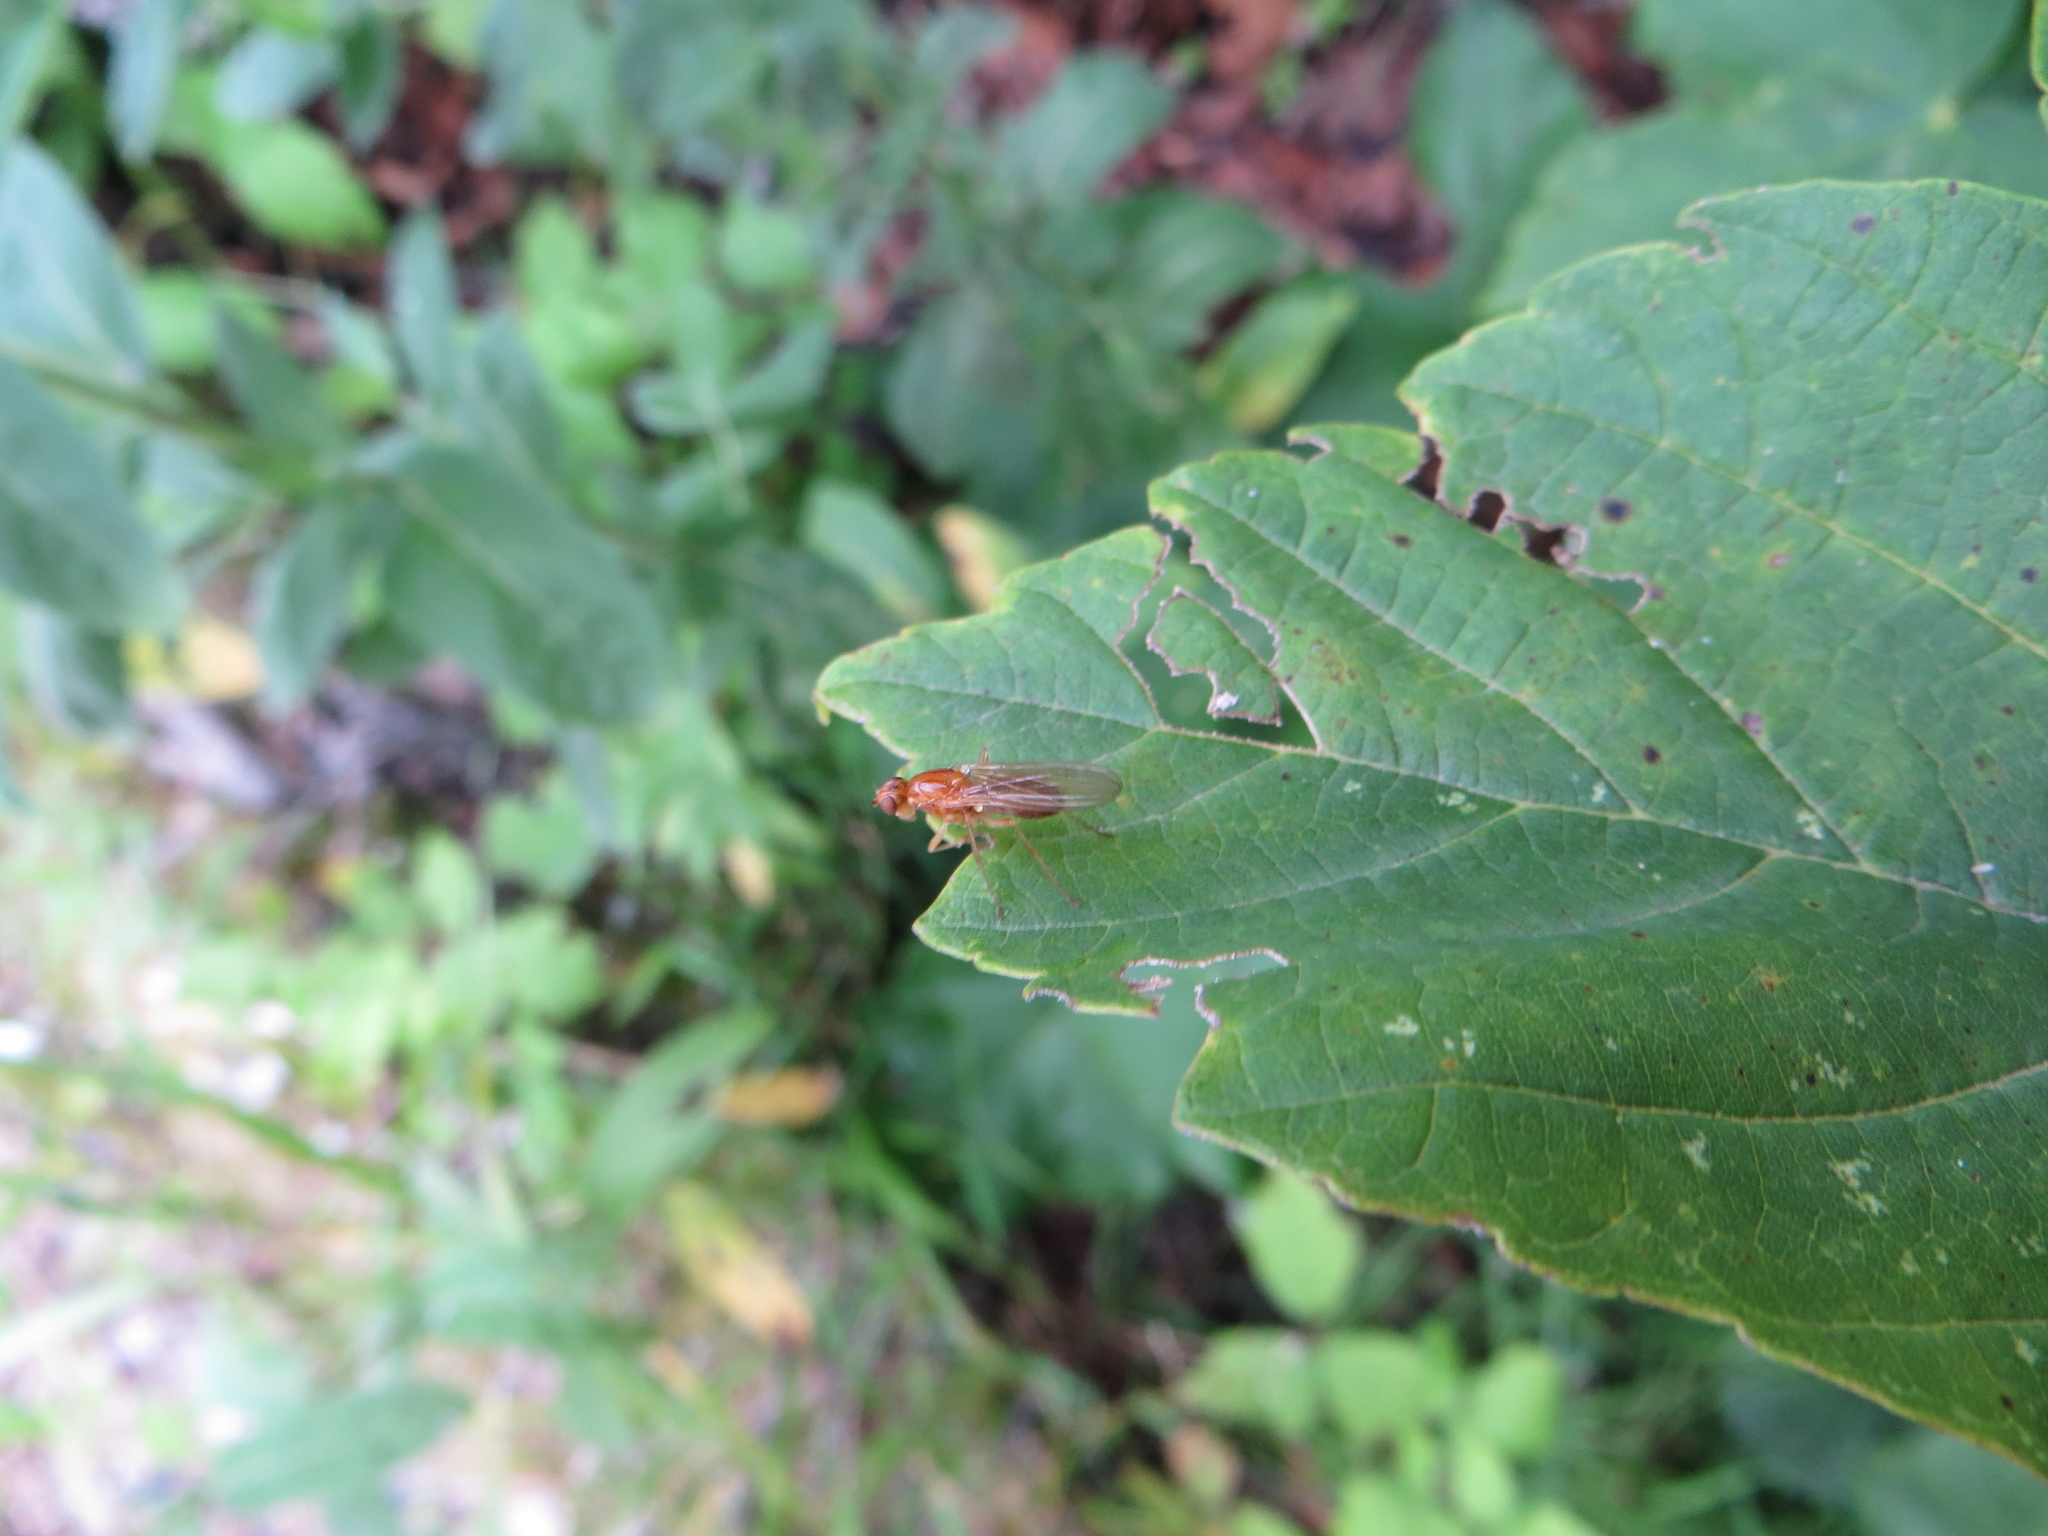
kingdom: Animalia
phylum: Arthropoda
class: Insecta
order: Diptera
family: Psilidae
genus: Psila
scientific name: Psila fimetaria
